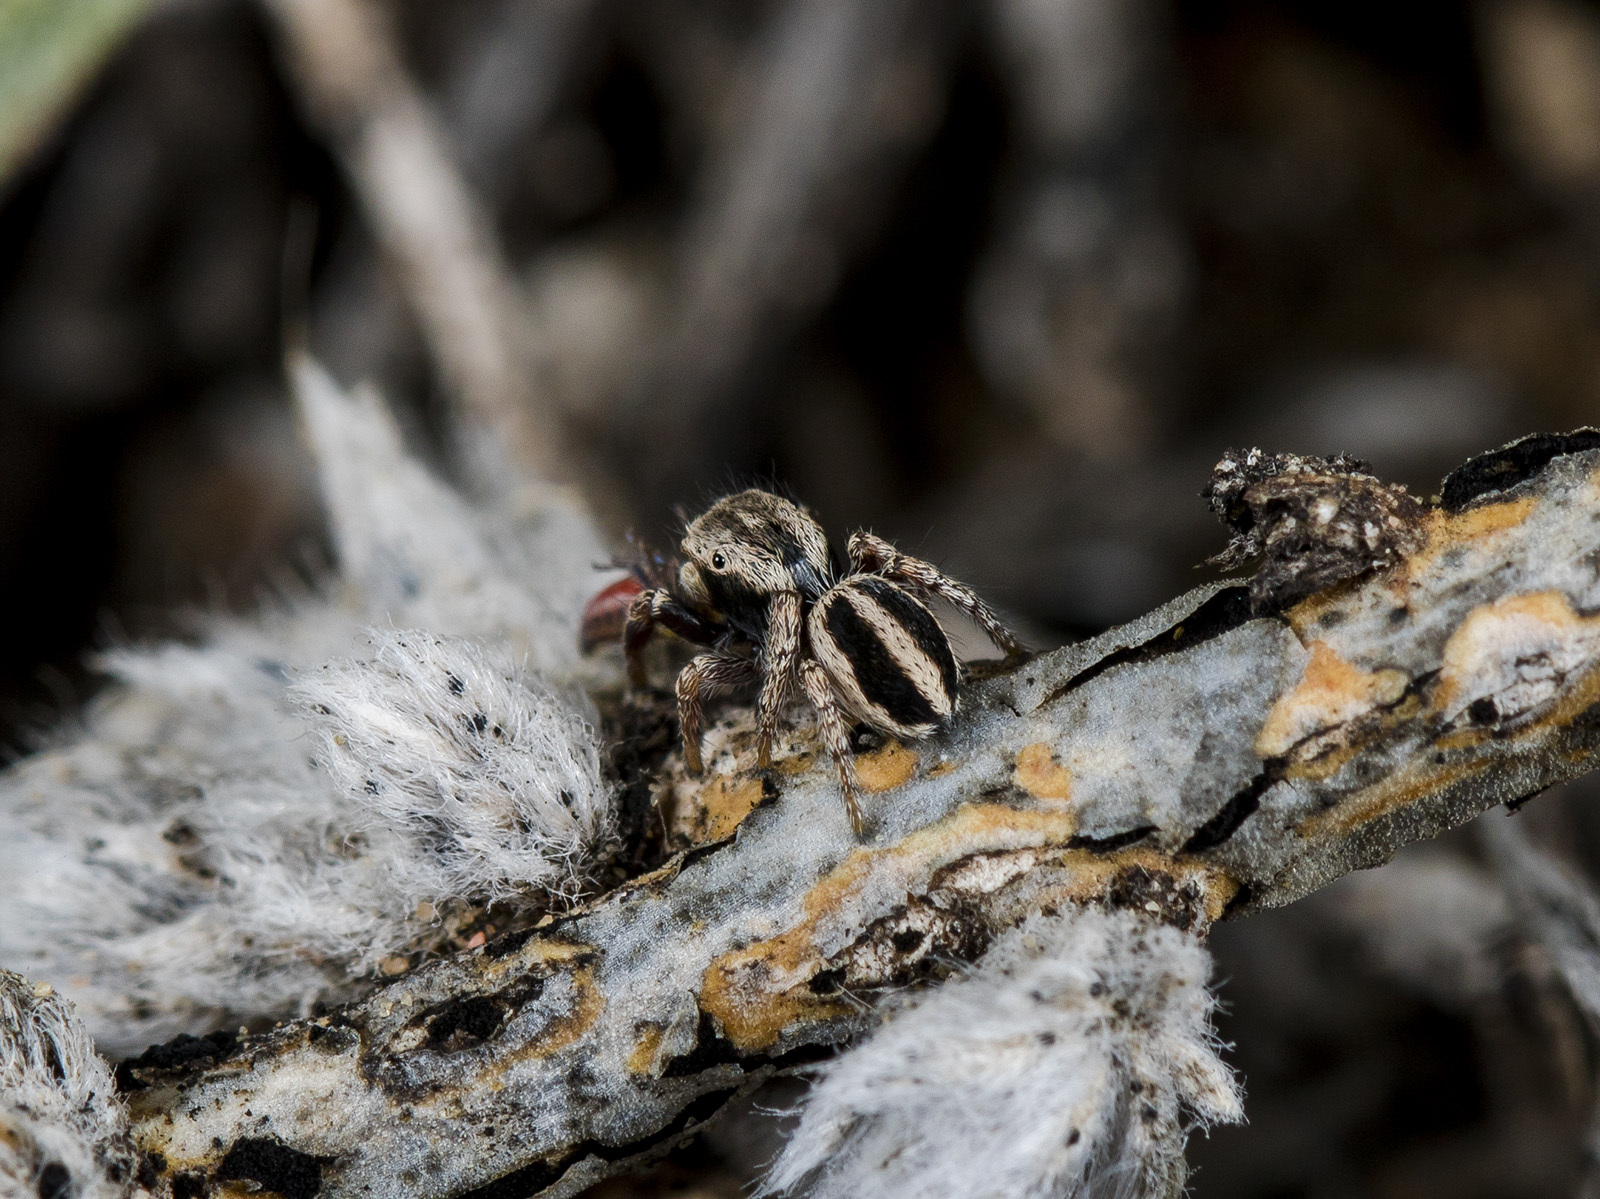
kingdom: Animalia
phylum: Arthropoda
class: Arachnida
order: Araneae
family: Salticidae
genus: Pellenes
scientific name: Pellenes epularis
